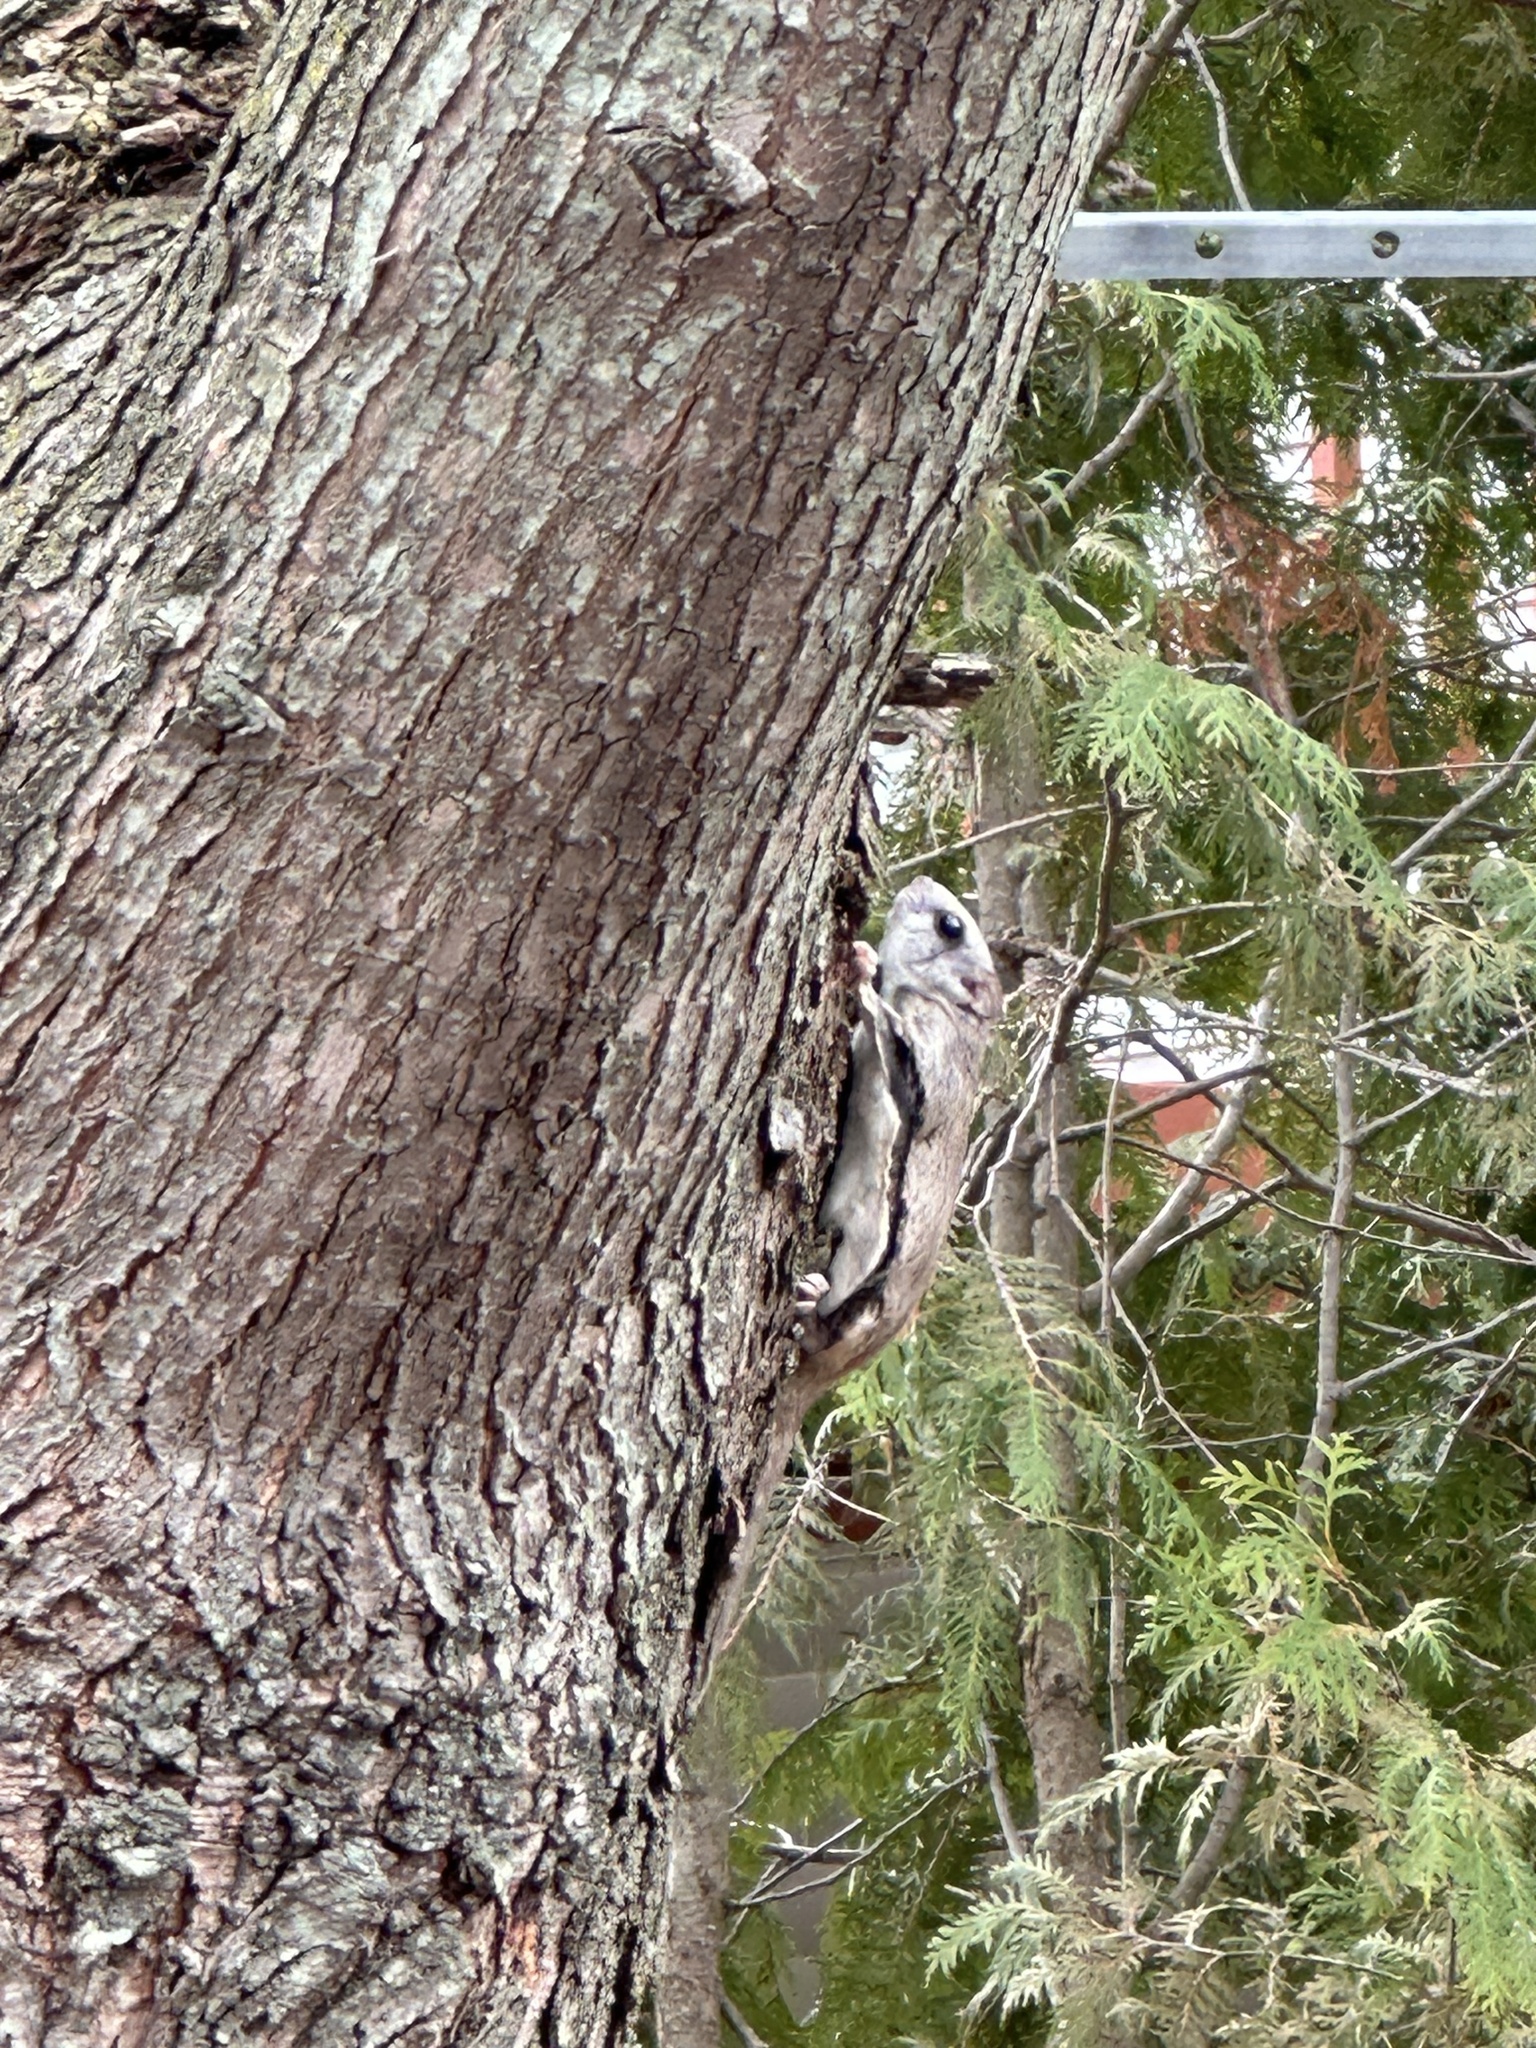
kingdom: Animalia
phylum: Chordata
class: Mammalia
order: Rodentia
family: Sciuridae
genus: Glaucomys
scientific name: Glaucomys volans
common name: Southern flying squirrel
